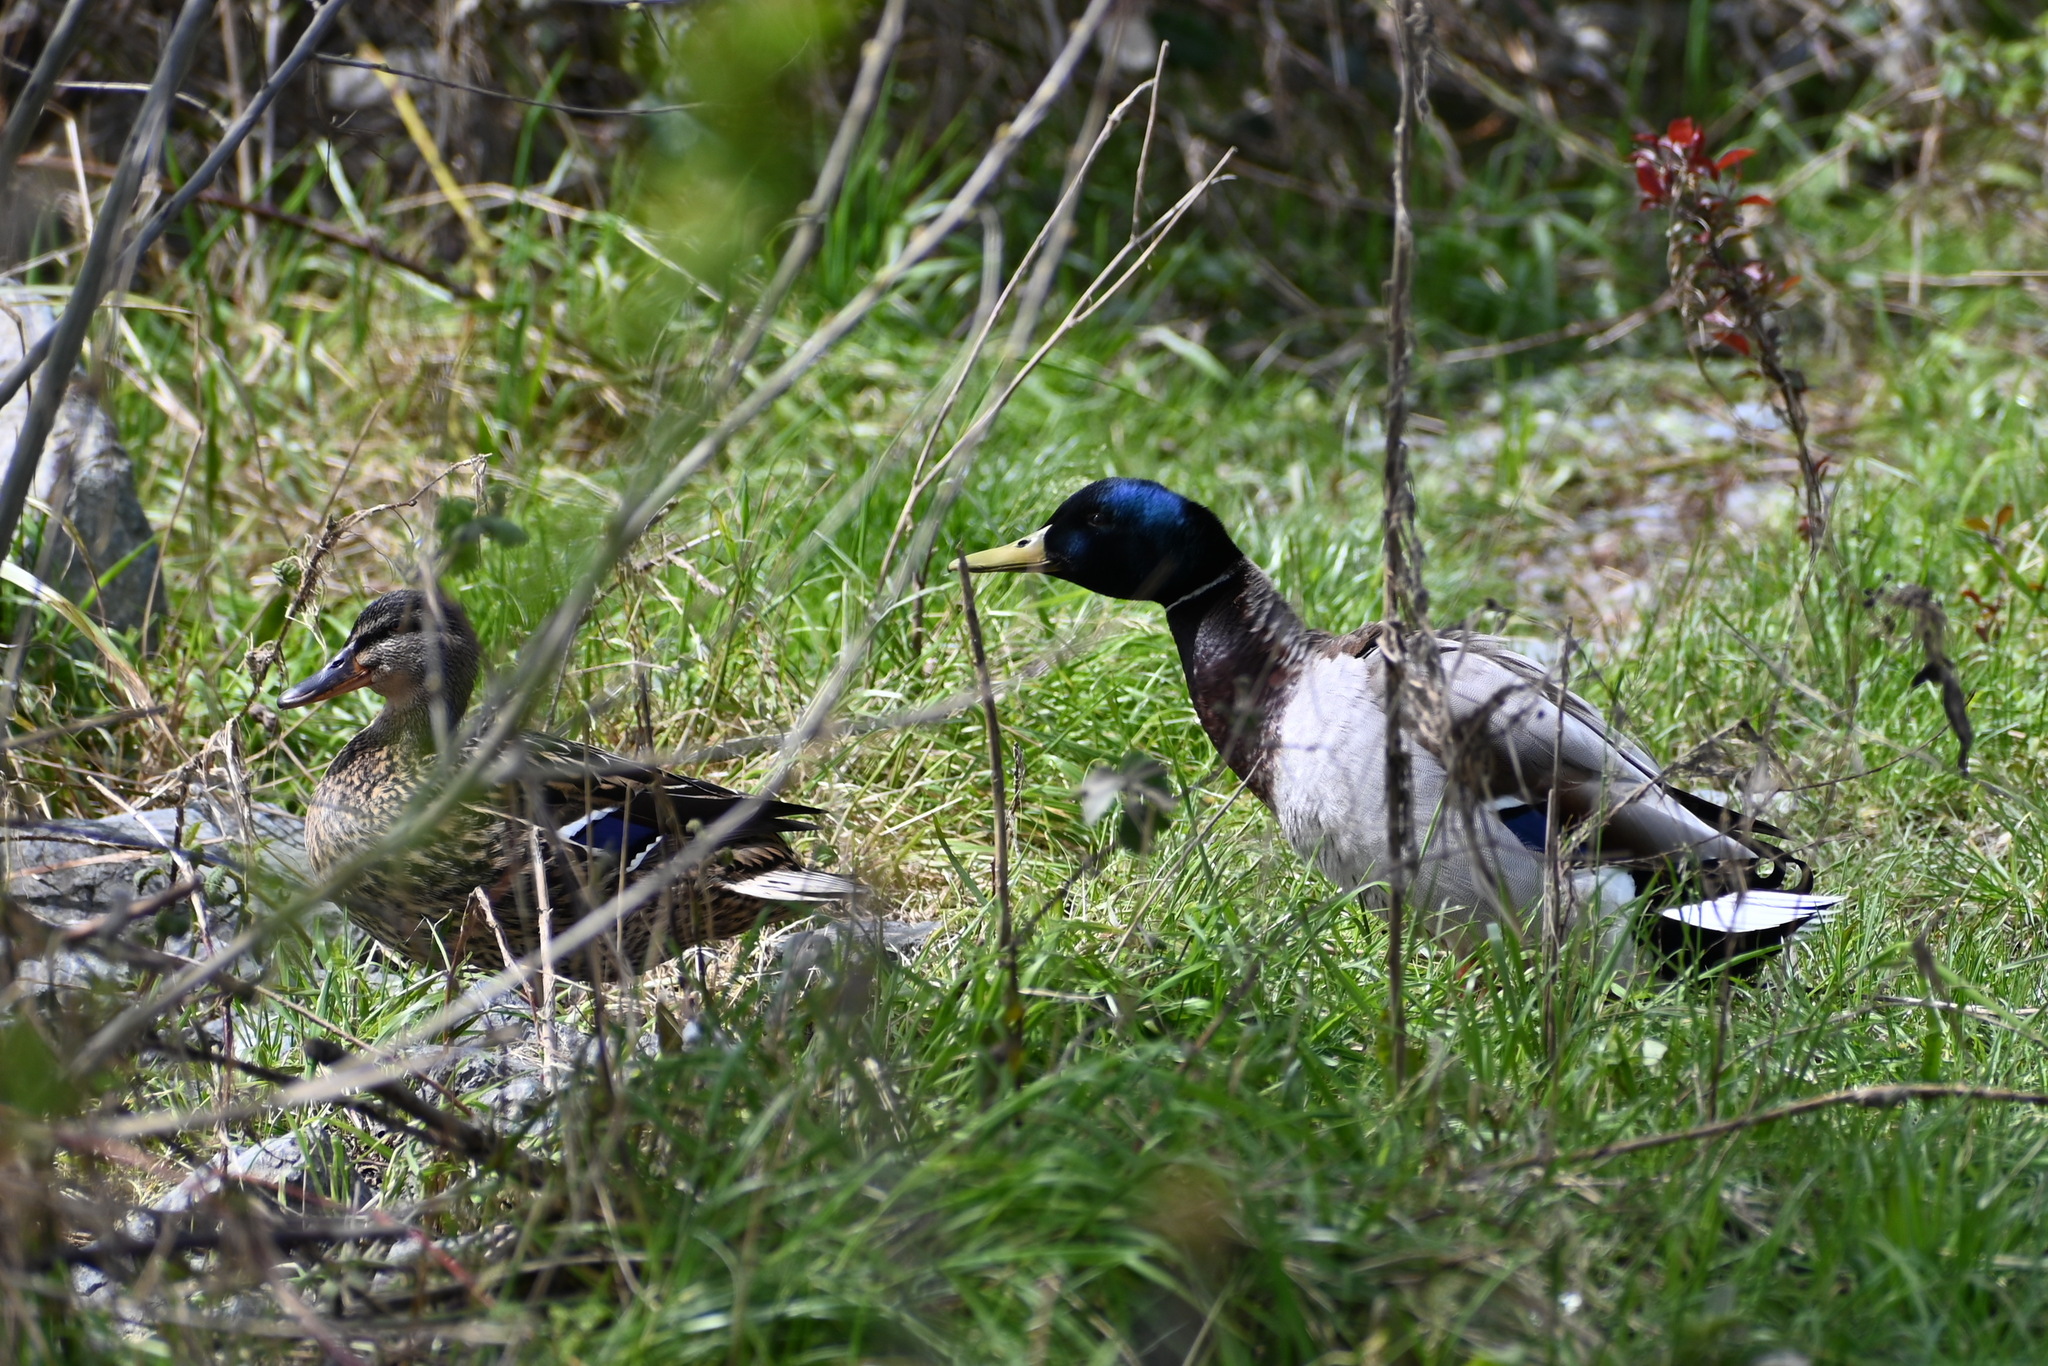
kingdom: Animalia
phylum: Chordata
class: Aves
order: Anseriformes
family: Anatidae
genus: Anas
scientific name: Anas platyrhynchos
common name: Mallard
